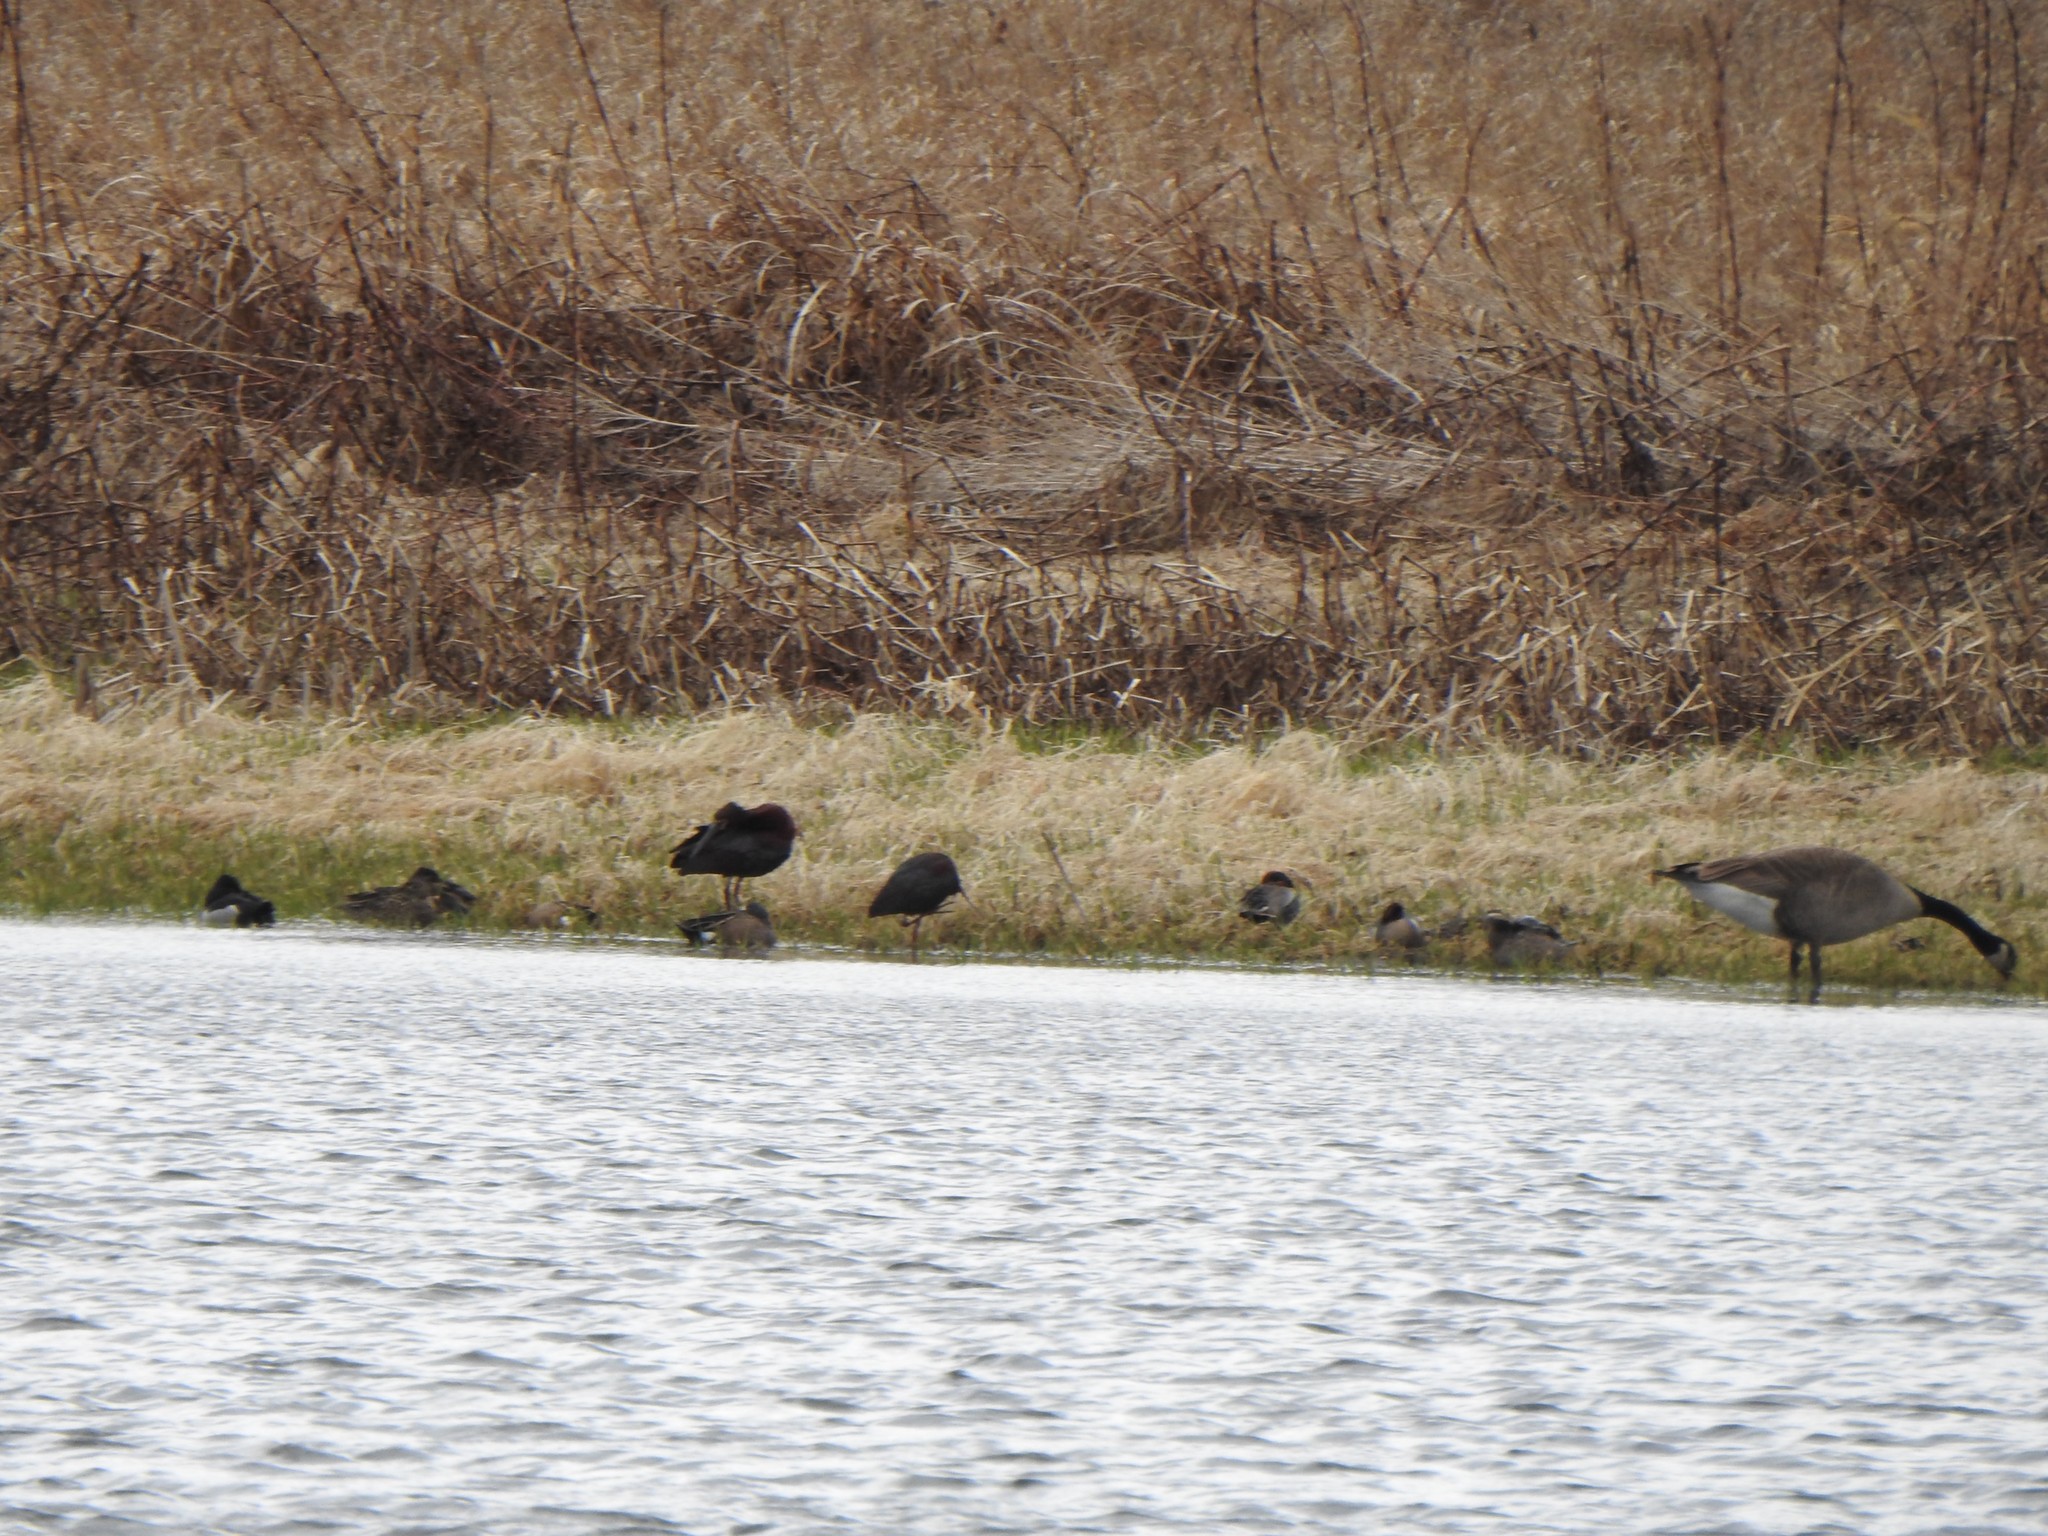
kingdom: Animalia
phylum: Chordata
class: Aves
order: Pelecaniformes
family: Threskiornithidae
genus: Plegadis
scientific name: Plegadis chihi
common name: White-faced ibis
